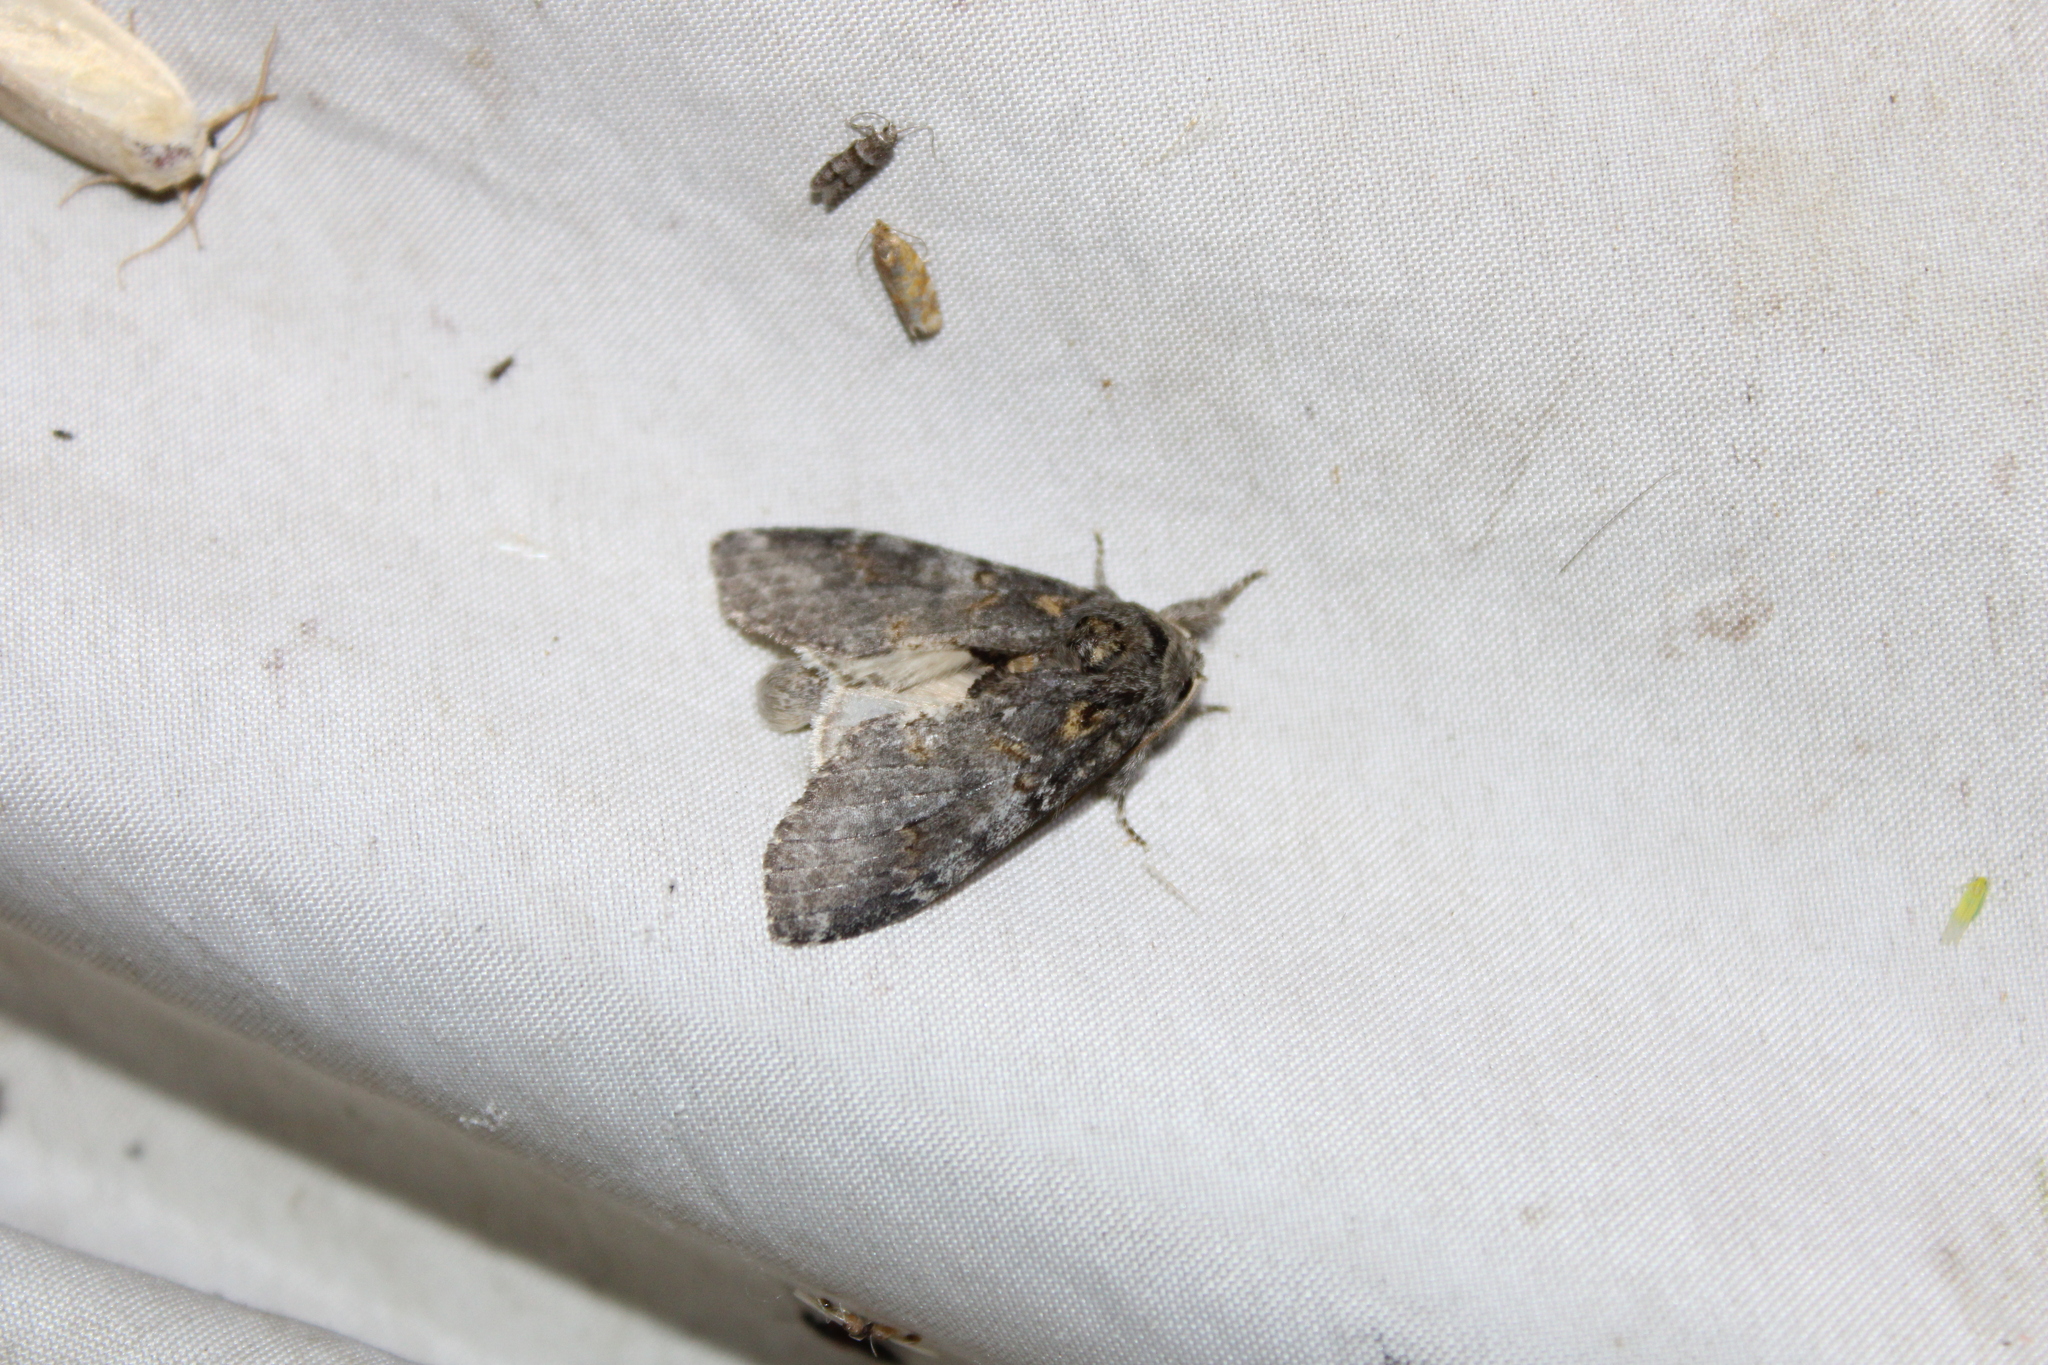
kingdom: Animalia
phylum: Arthropoda
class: Insecta
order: Lepidoptera
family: Notodontidae
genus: Peridea
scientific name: Peridea angulosa
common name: Angulose prominent
